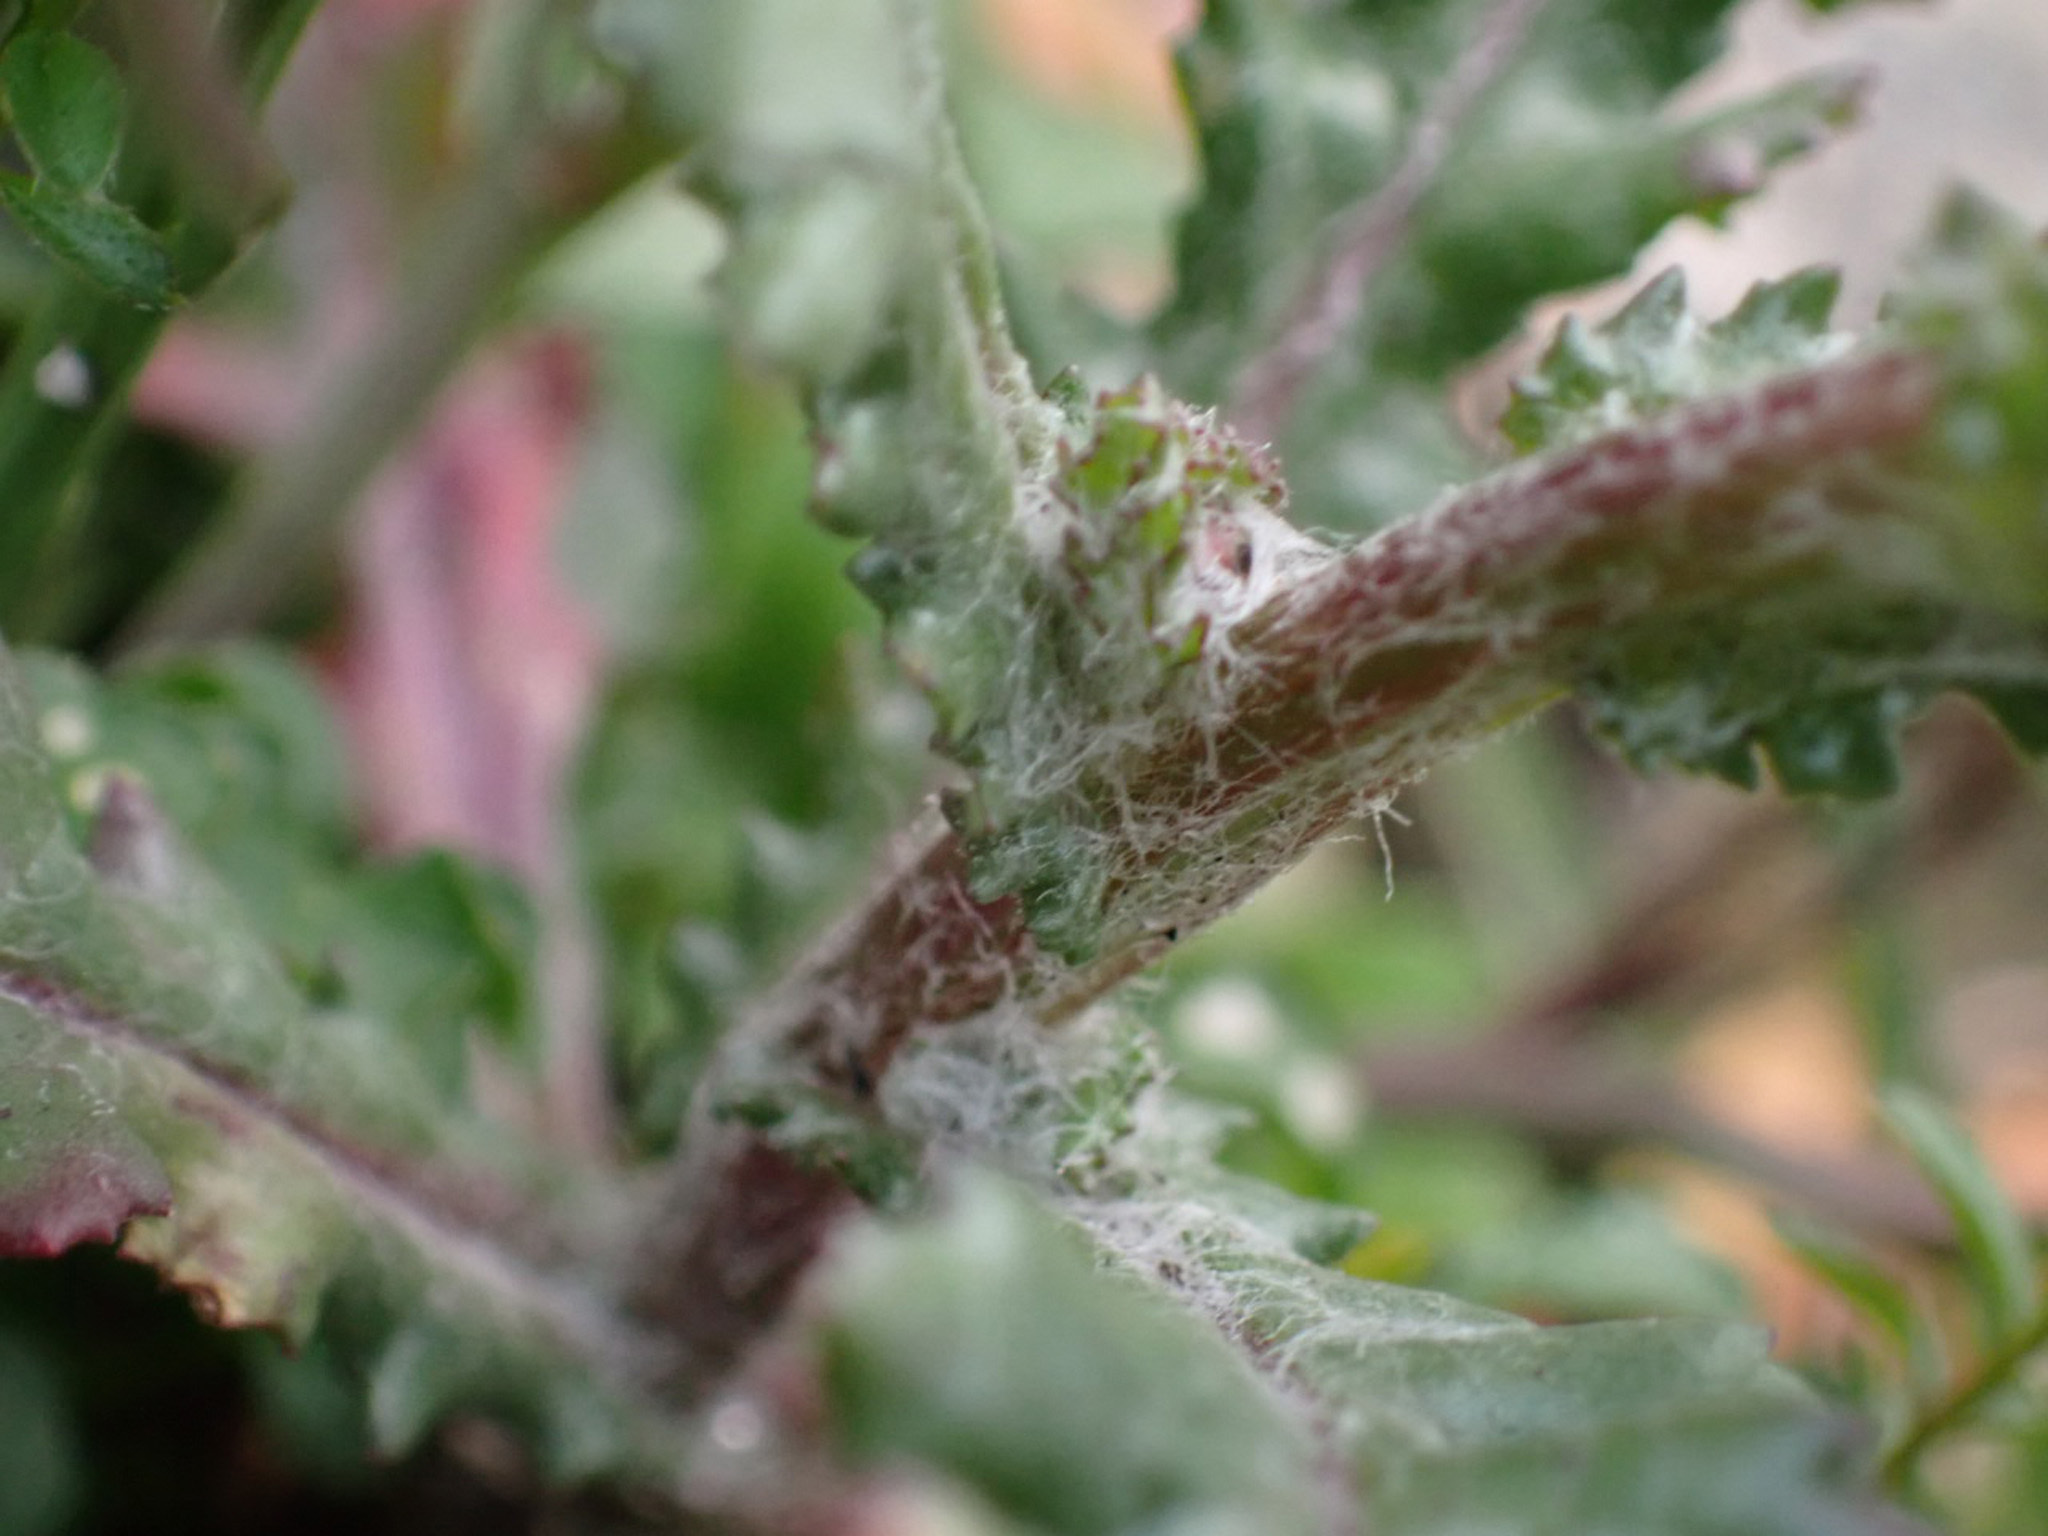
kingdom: Plantae
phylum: Tracheophyta
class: Magnoliopsida
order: Asterales
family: Asteraceae
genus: Senecio
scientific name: Senecio vulgaris
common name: Old-man-in-the-spring
